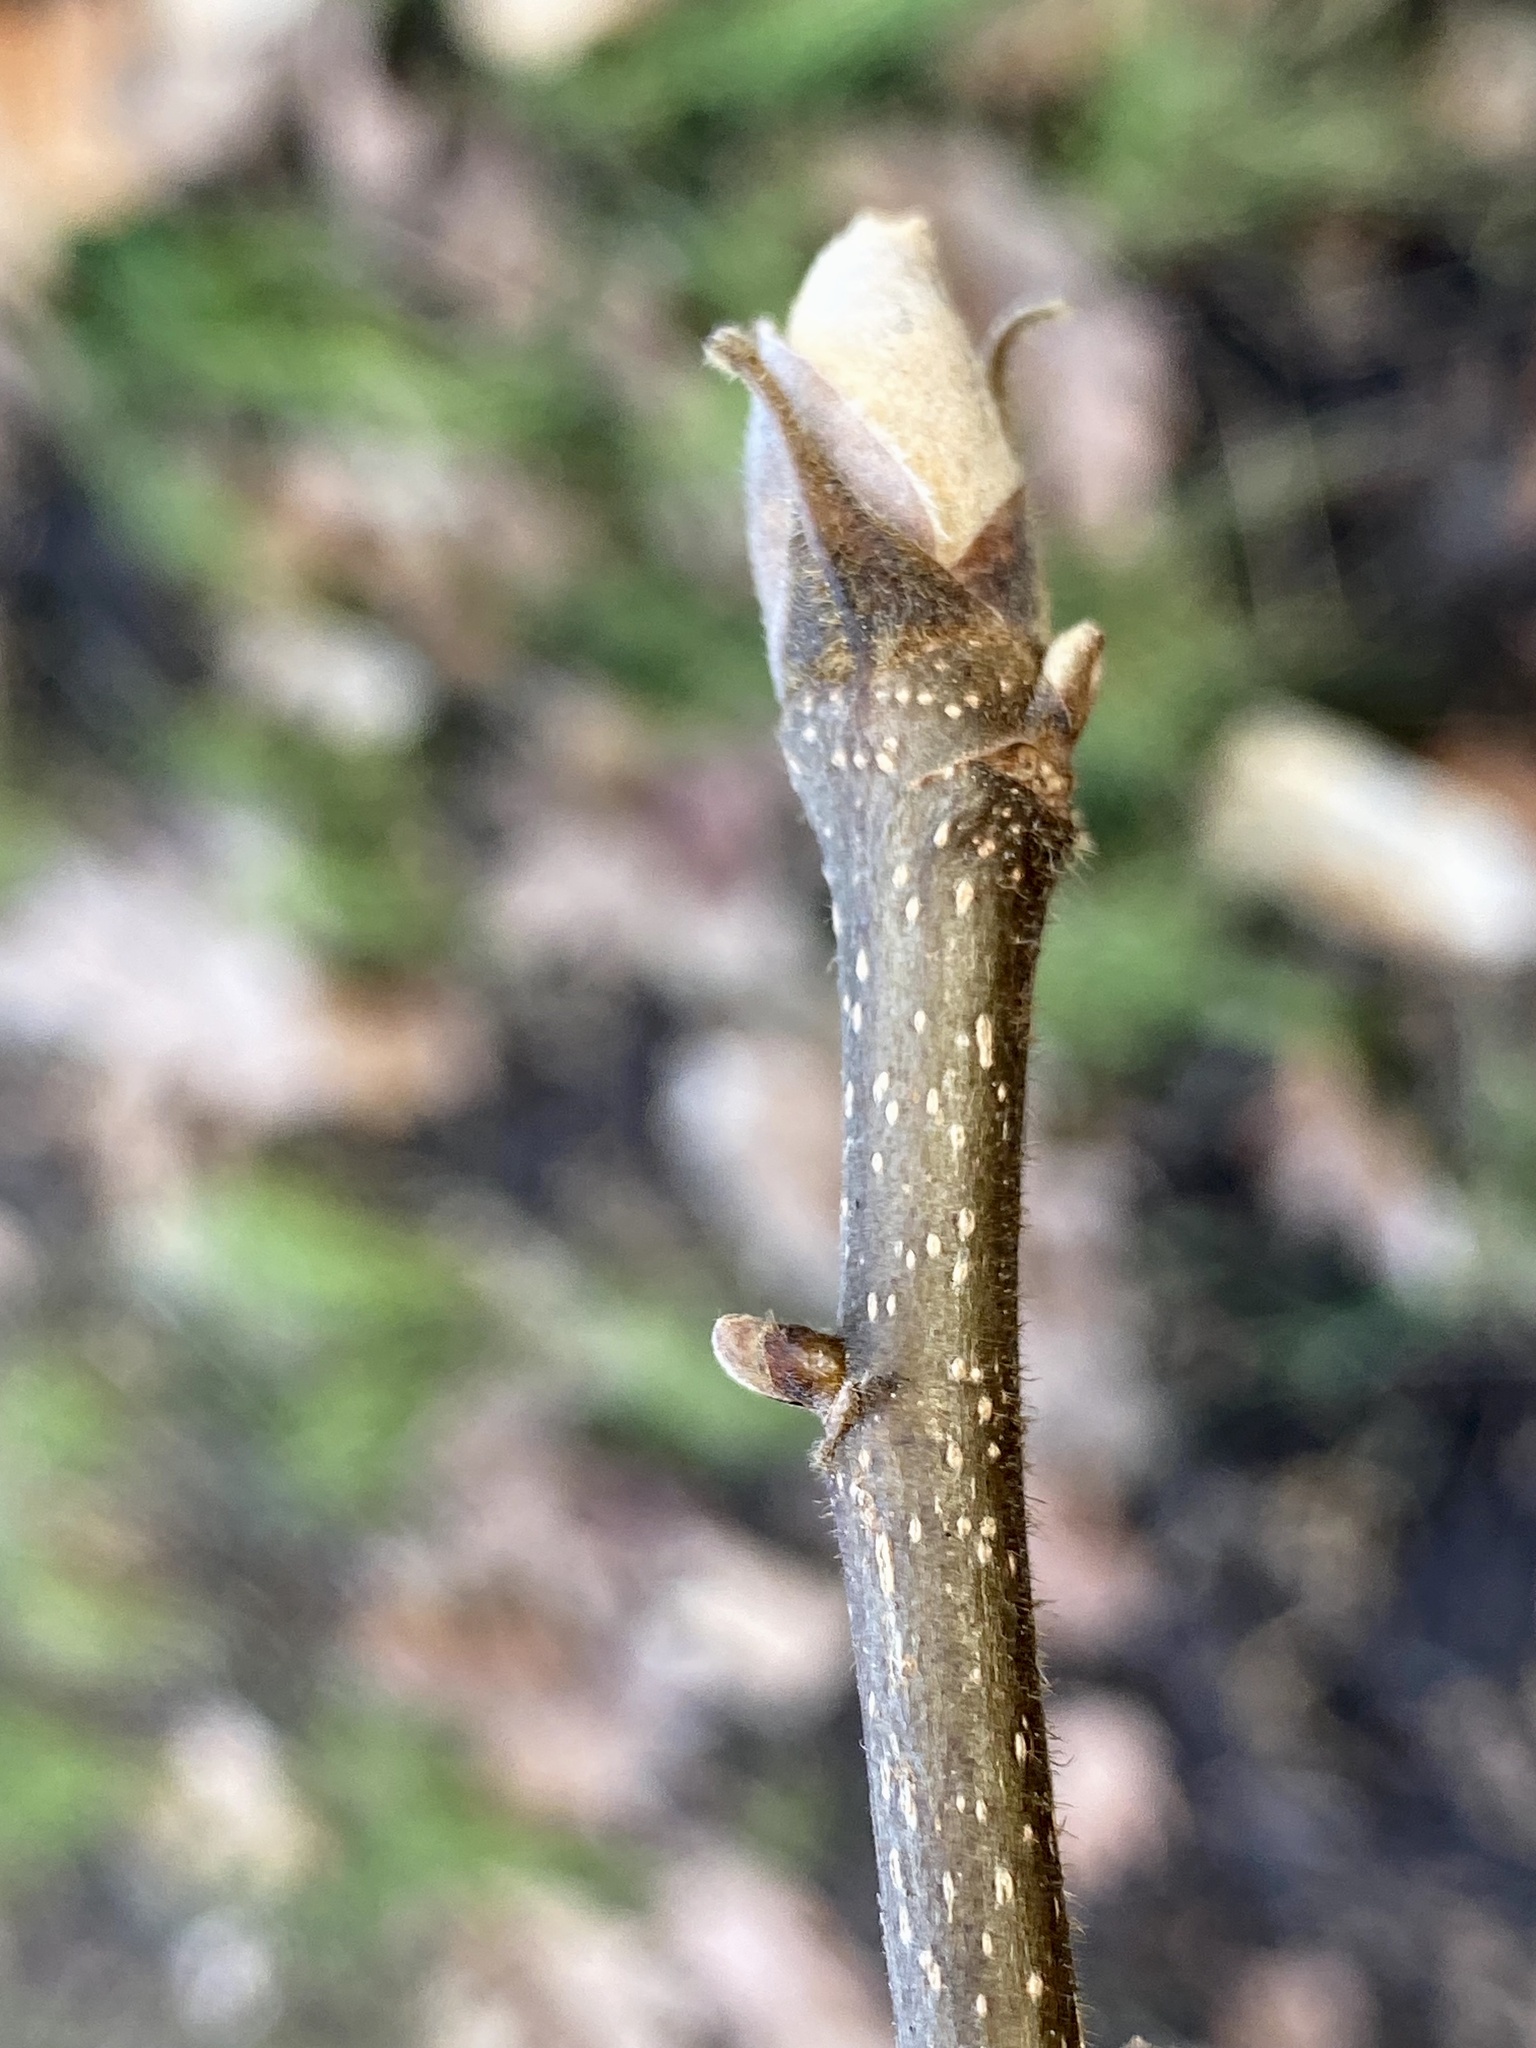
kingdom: Plantae
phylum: Tracheophyta
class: Magnoliopsida
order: Fagales
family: Juglandaceae
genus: Carya
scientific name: Carya ovata
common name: Shagbark hickory
